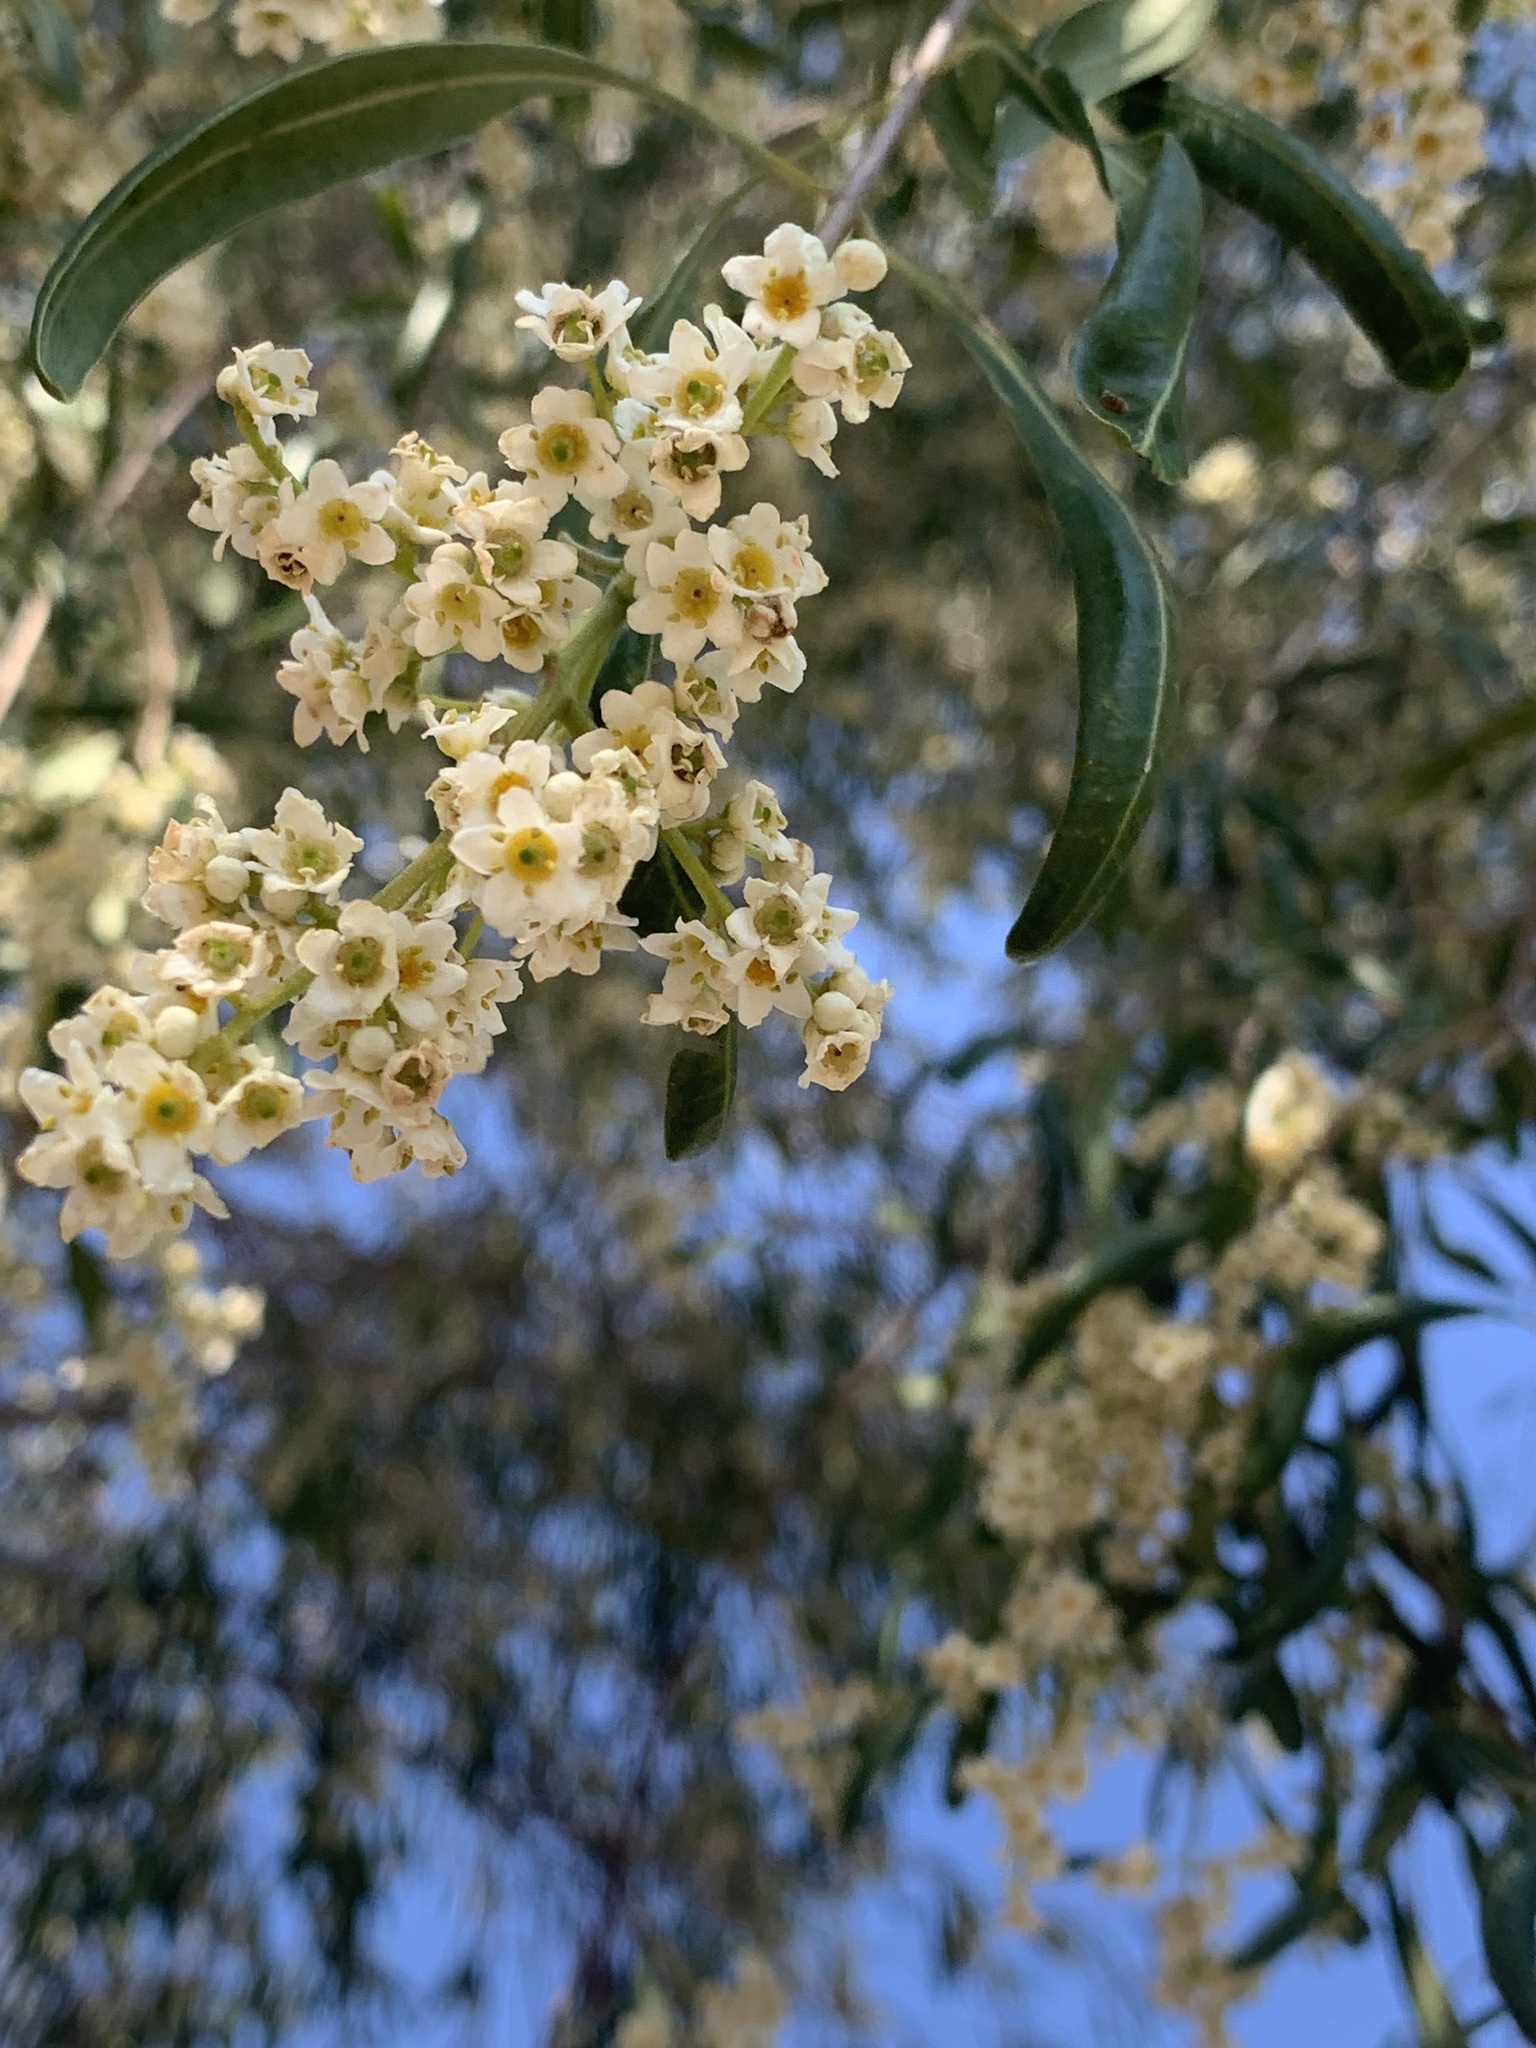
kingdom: Plantae
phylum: Tracheophyta
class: Magnoliopsida
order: Sapindales
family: Rutaceae
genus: Flindersia
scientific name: Flindersia maculosa
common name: Leopardtree
